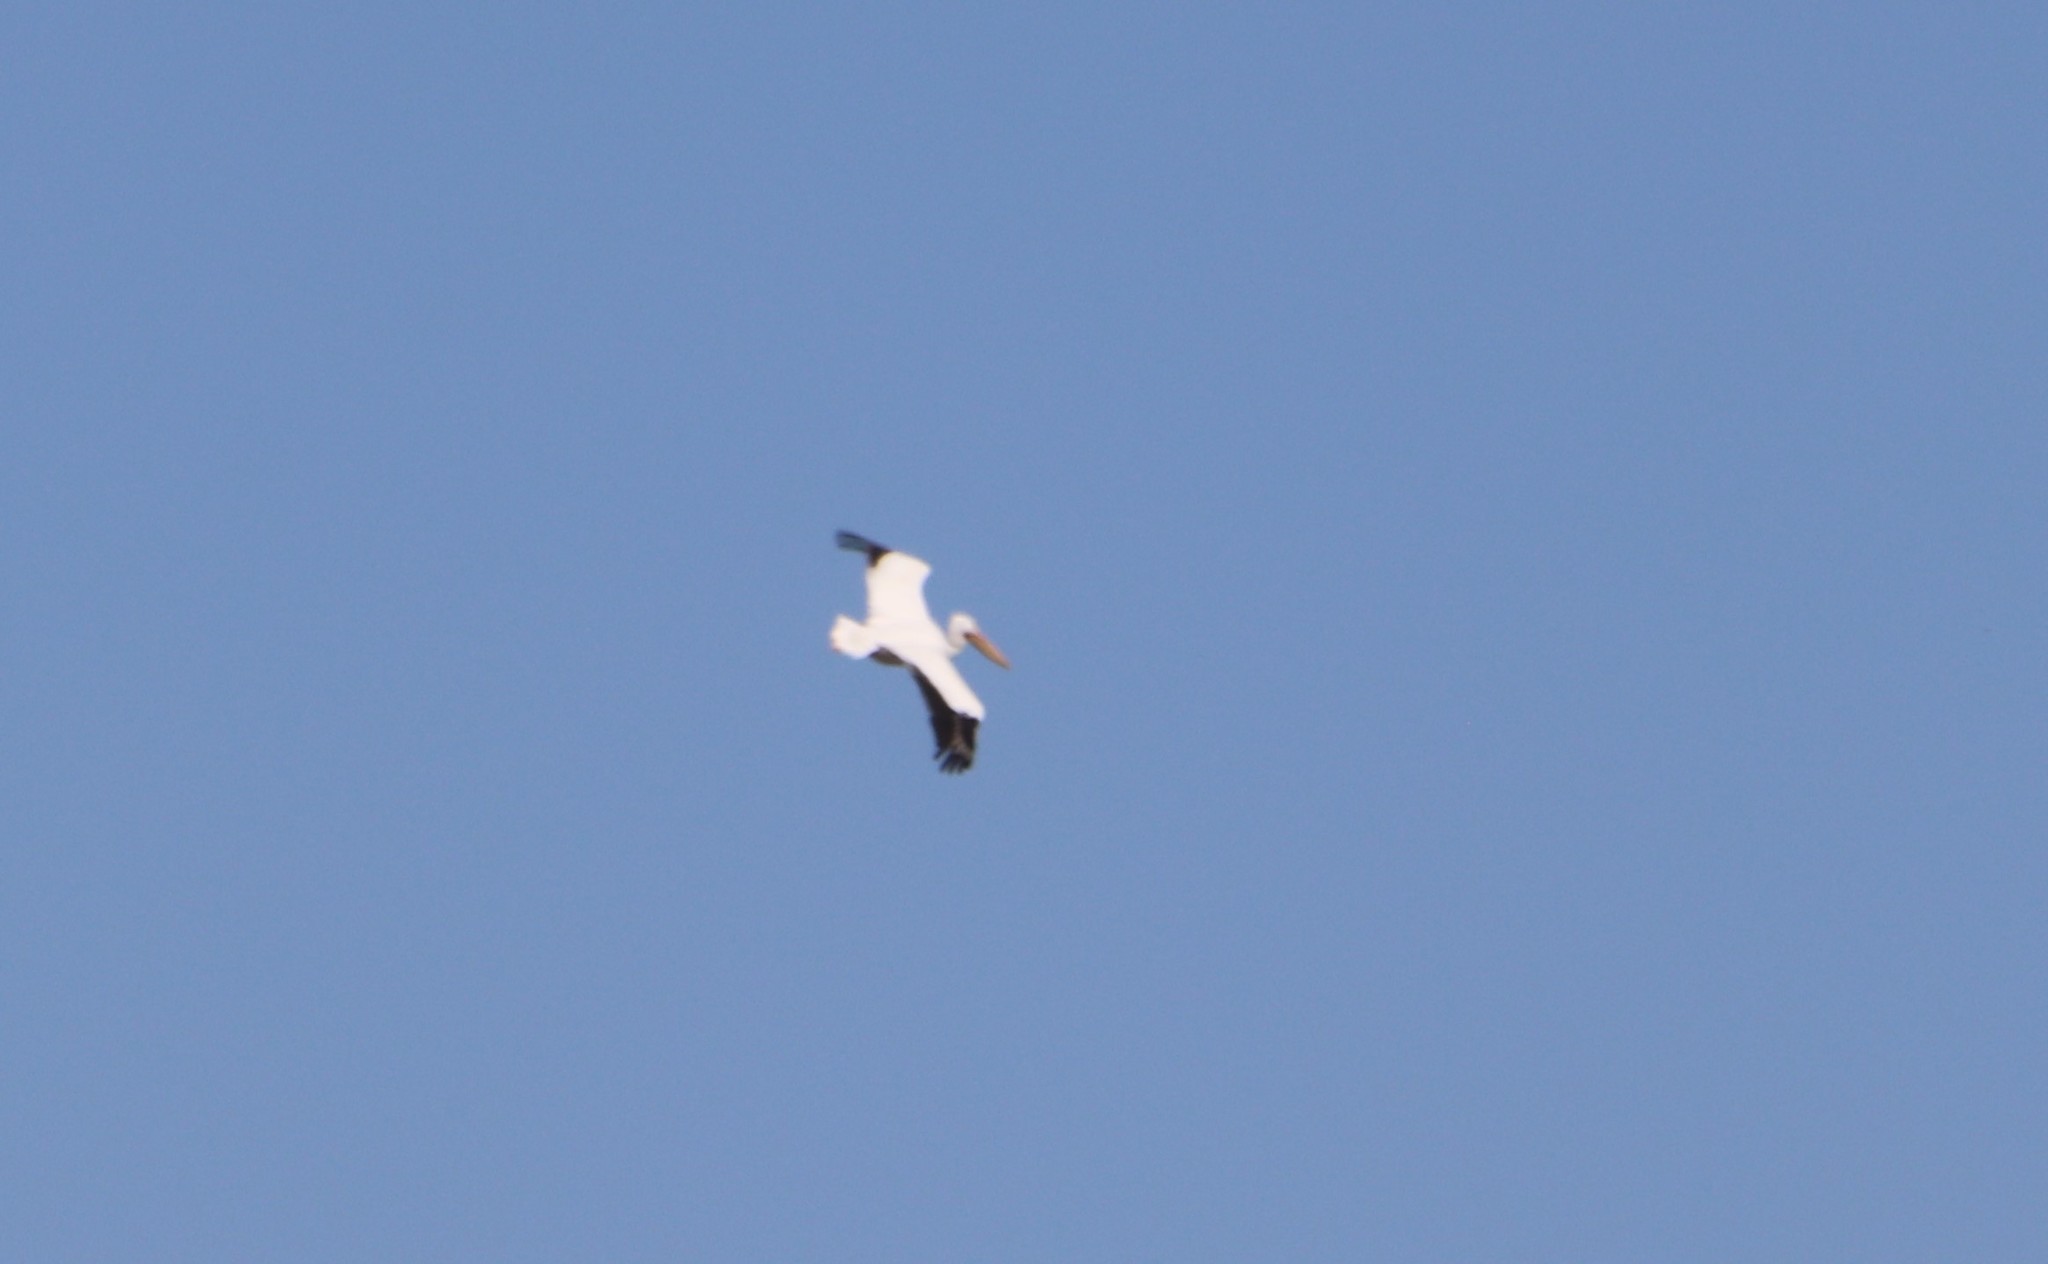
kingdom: Animalia
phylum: Chordata
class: Aves
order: Pelecaniformes
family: Pelecanidae
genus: Pelecanus
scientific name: Pelecanus erythrorhynchos
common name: American white pelican
